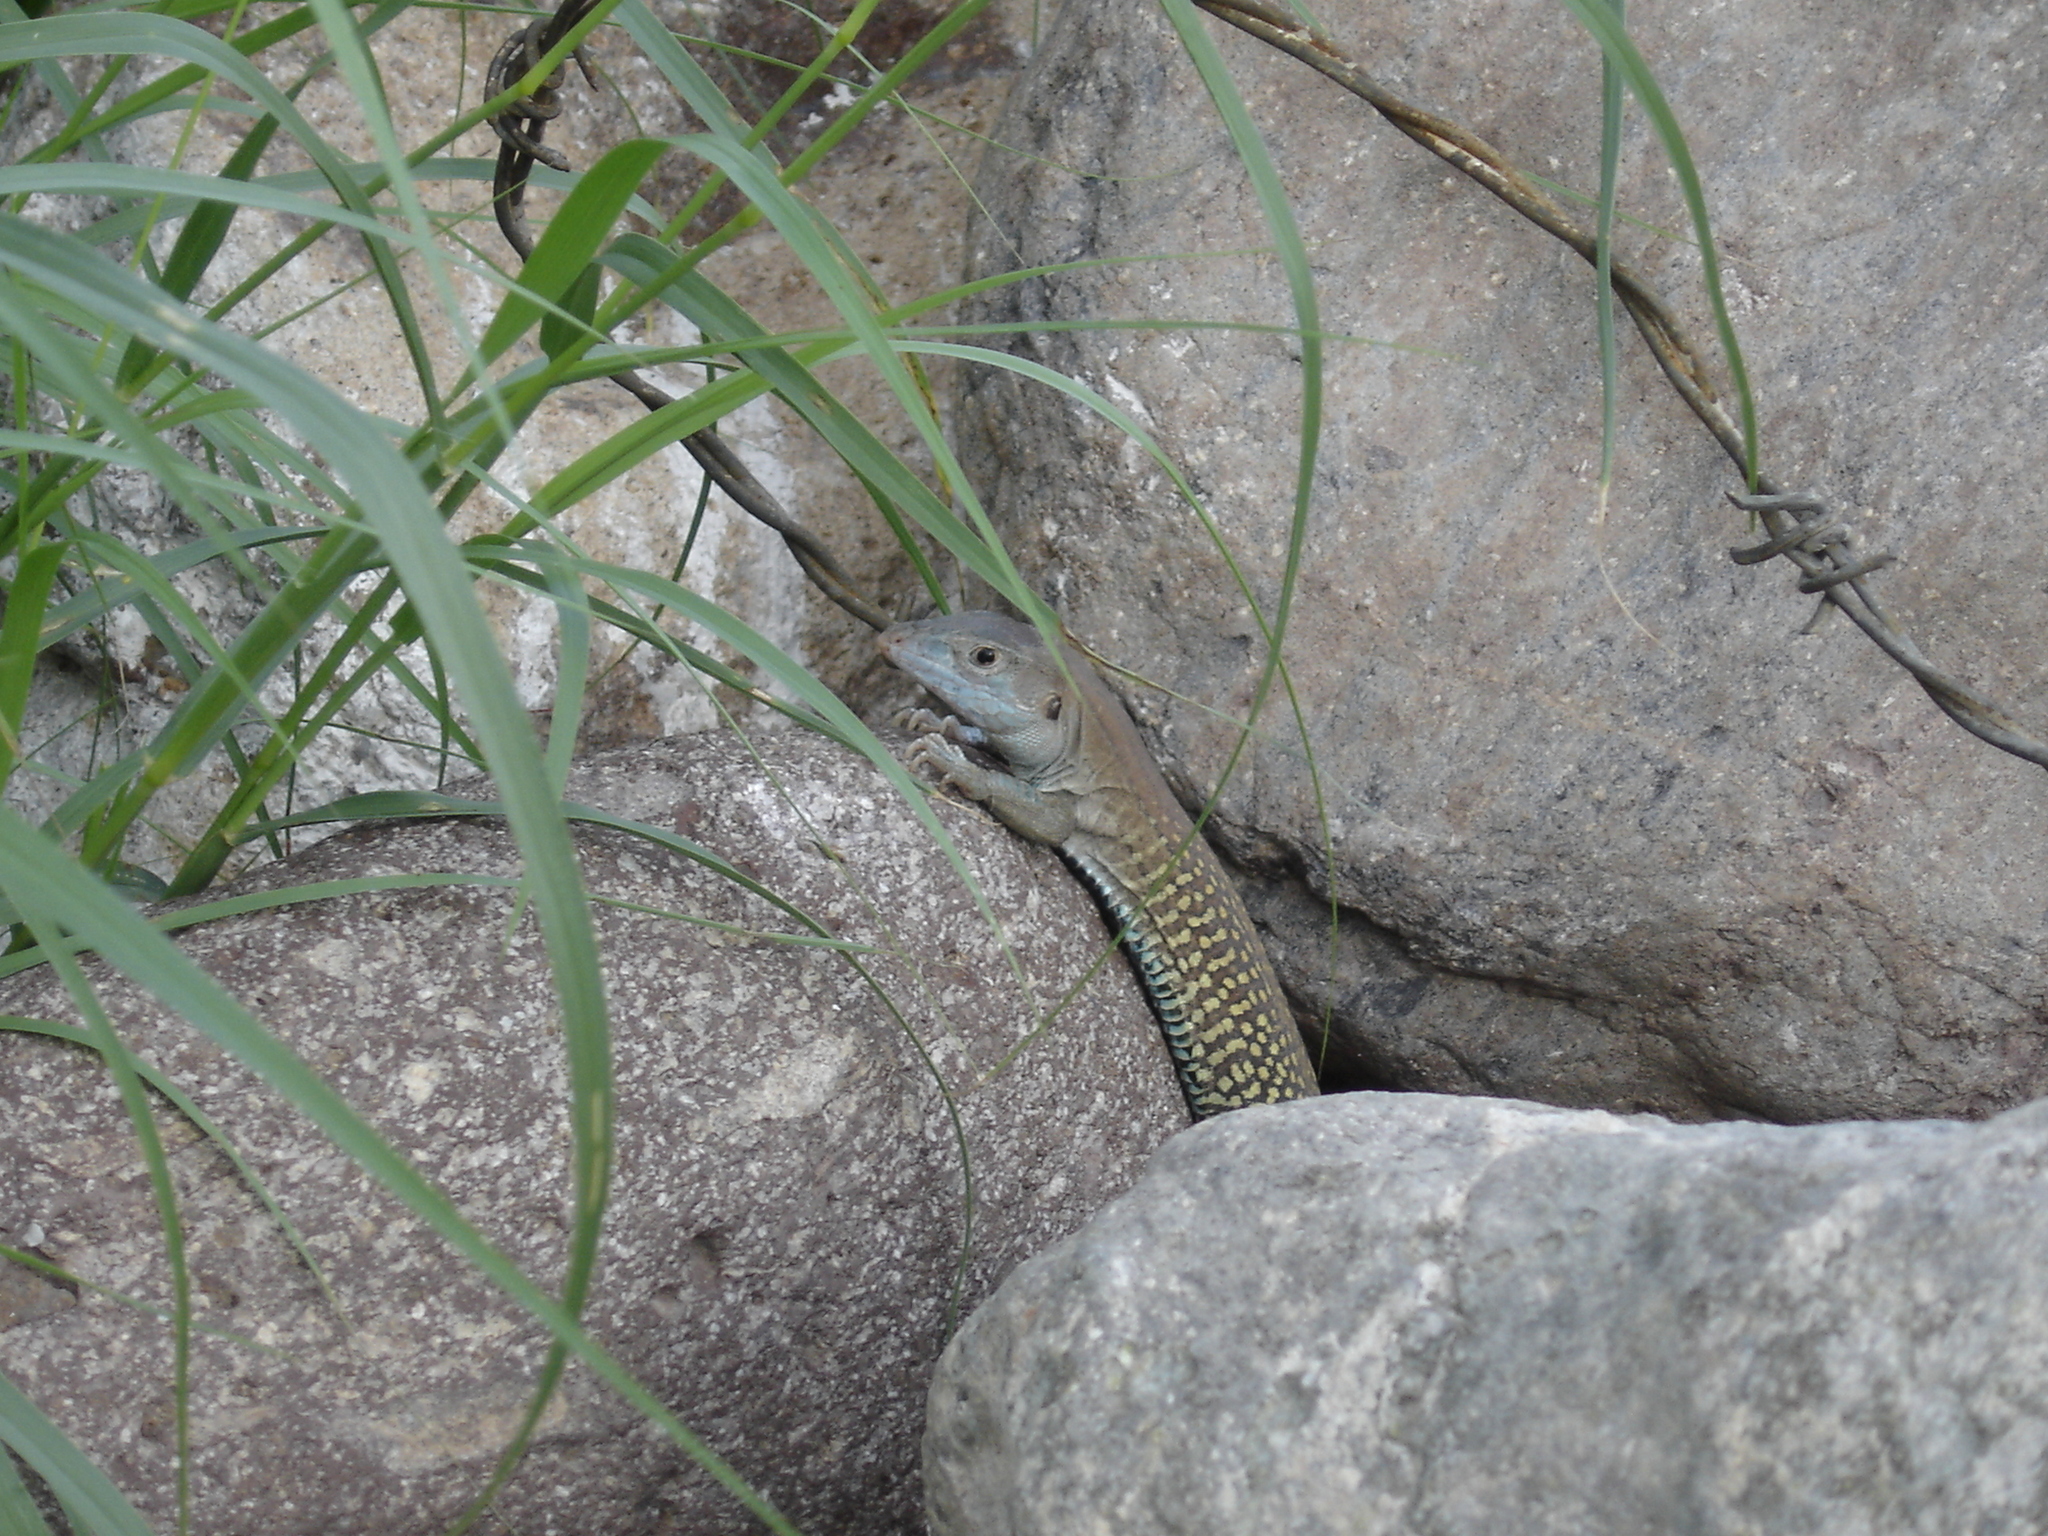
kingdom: Animalia
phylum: Chordata
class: Squamata
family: Teiidae
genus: Aspidoscelis
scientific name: Aspidoscelis costatus
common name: Western mexico whiptail
